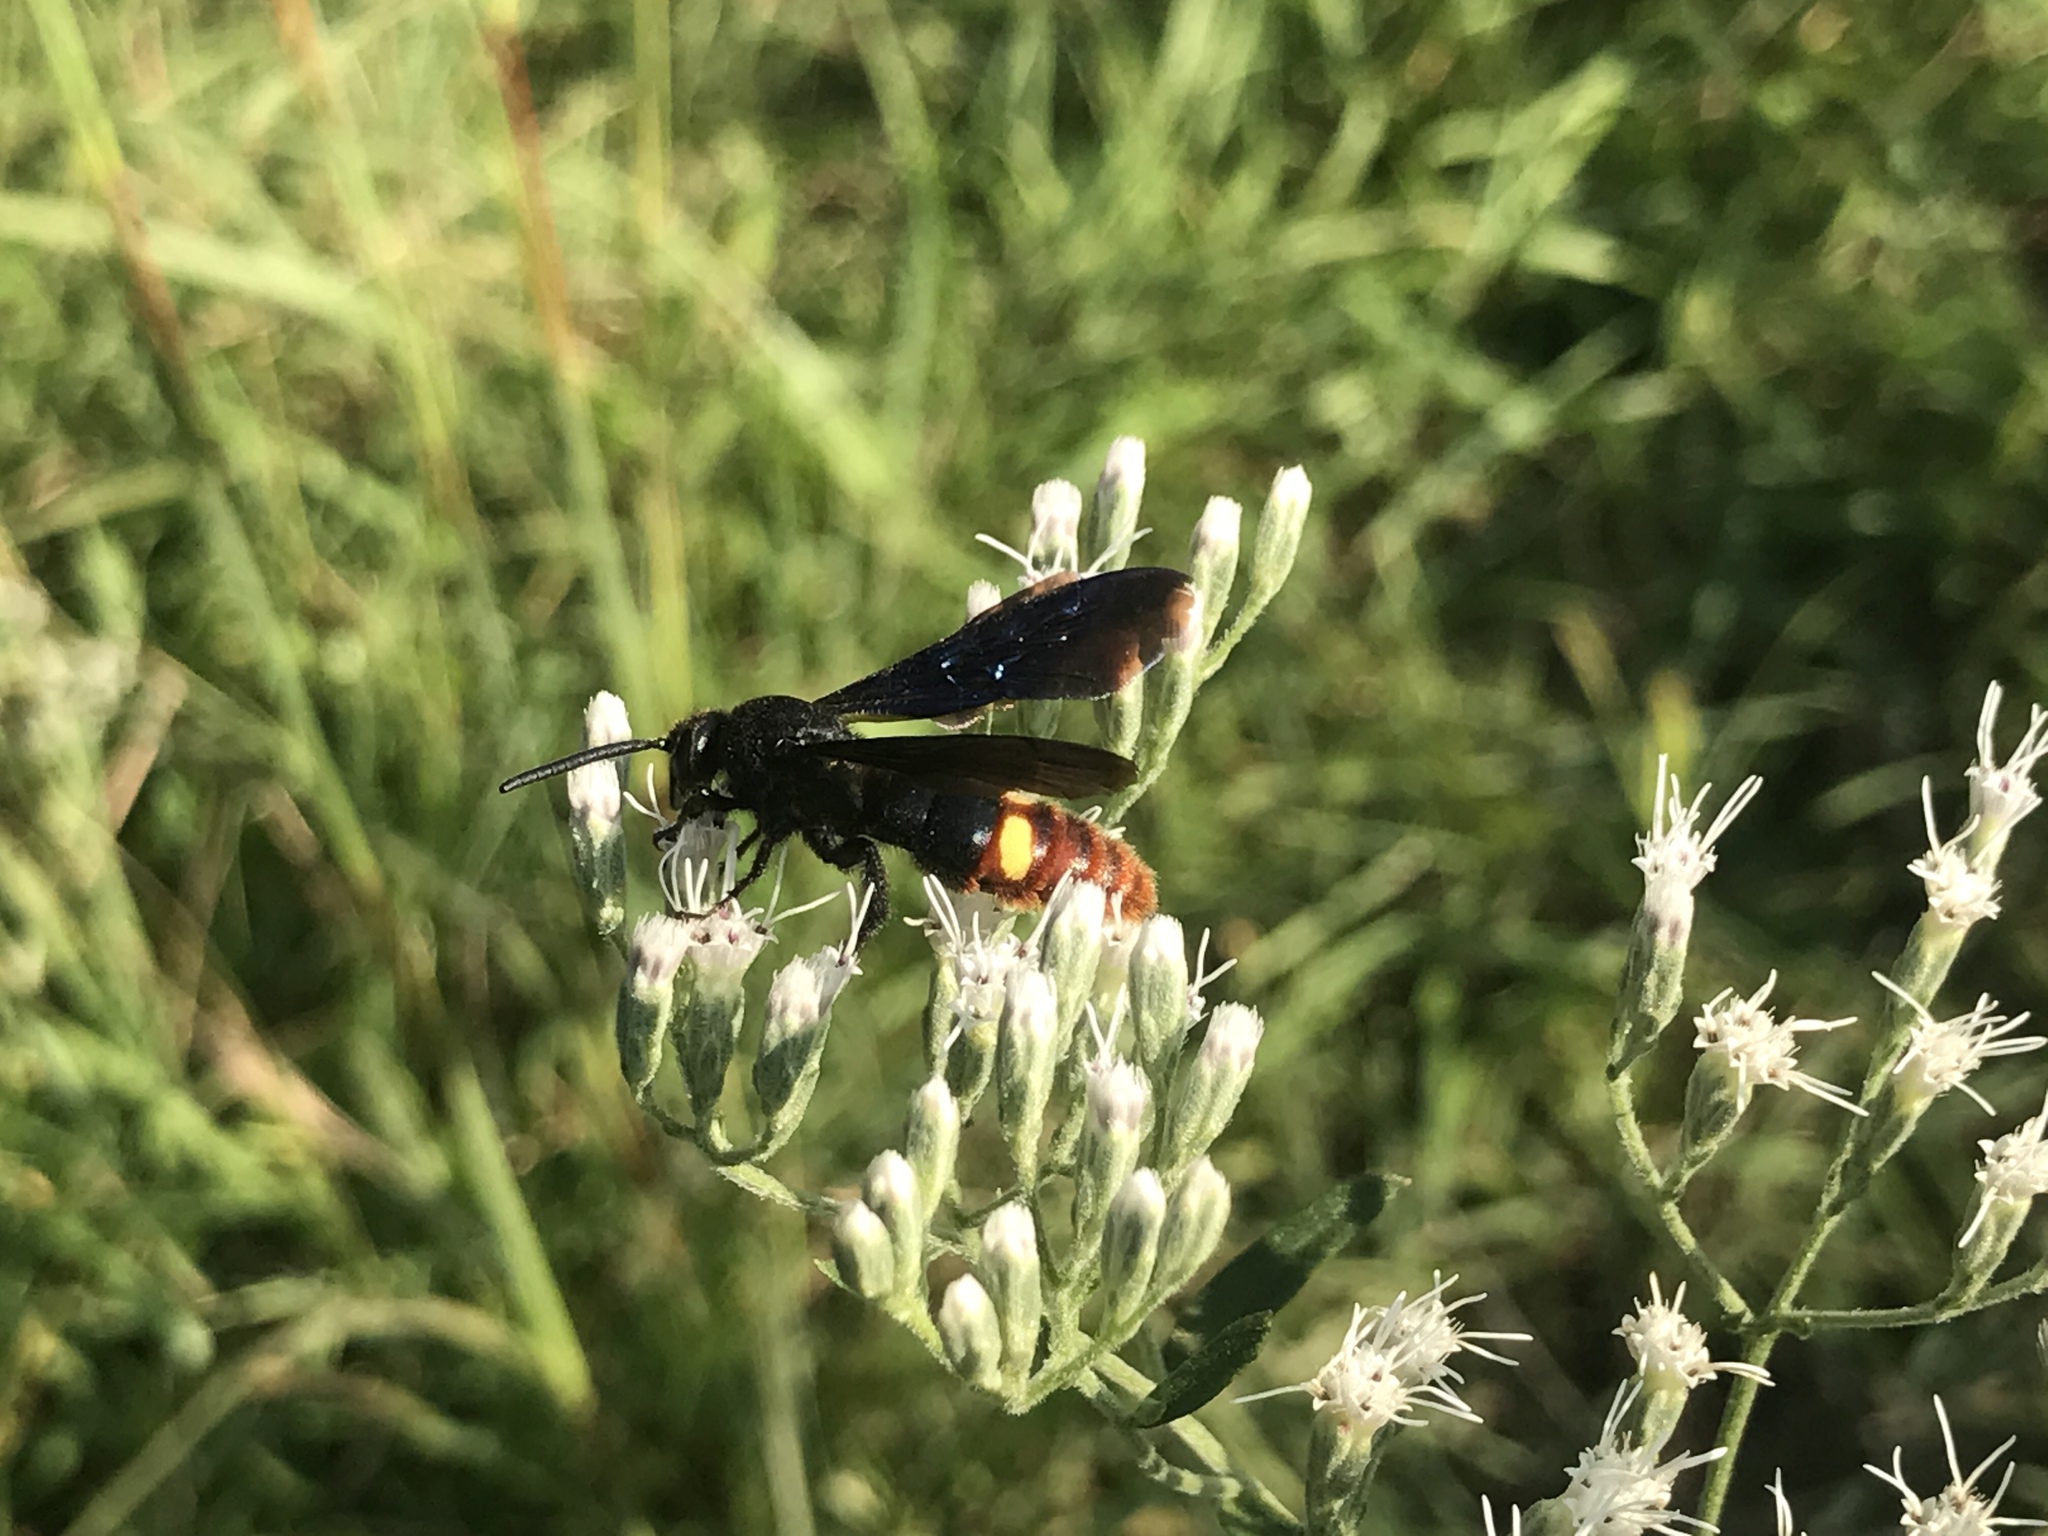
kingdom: Animalia
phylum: Arthropoda
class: Insecta
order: Hymenoptera
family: Scoliidae
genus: Scolia
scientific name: Scolia dubia
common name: Blue-winged scoliid wasp
